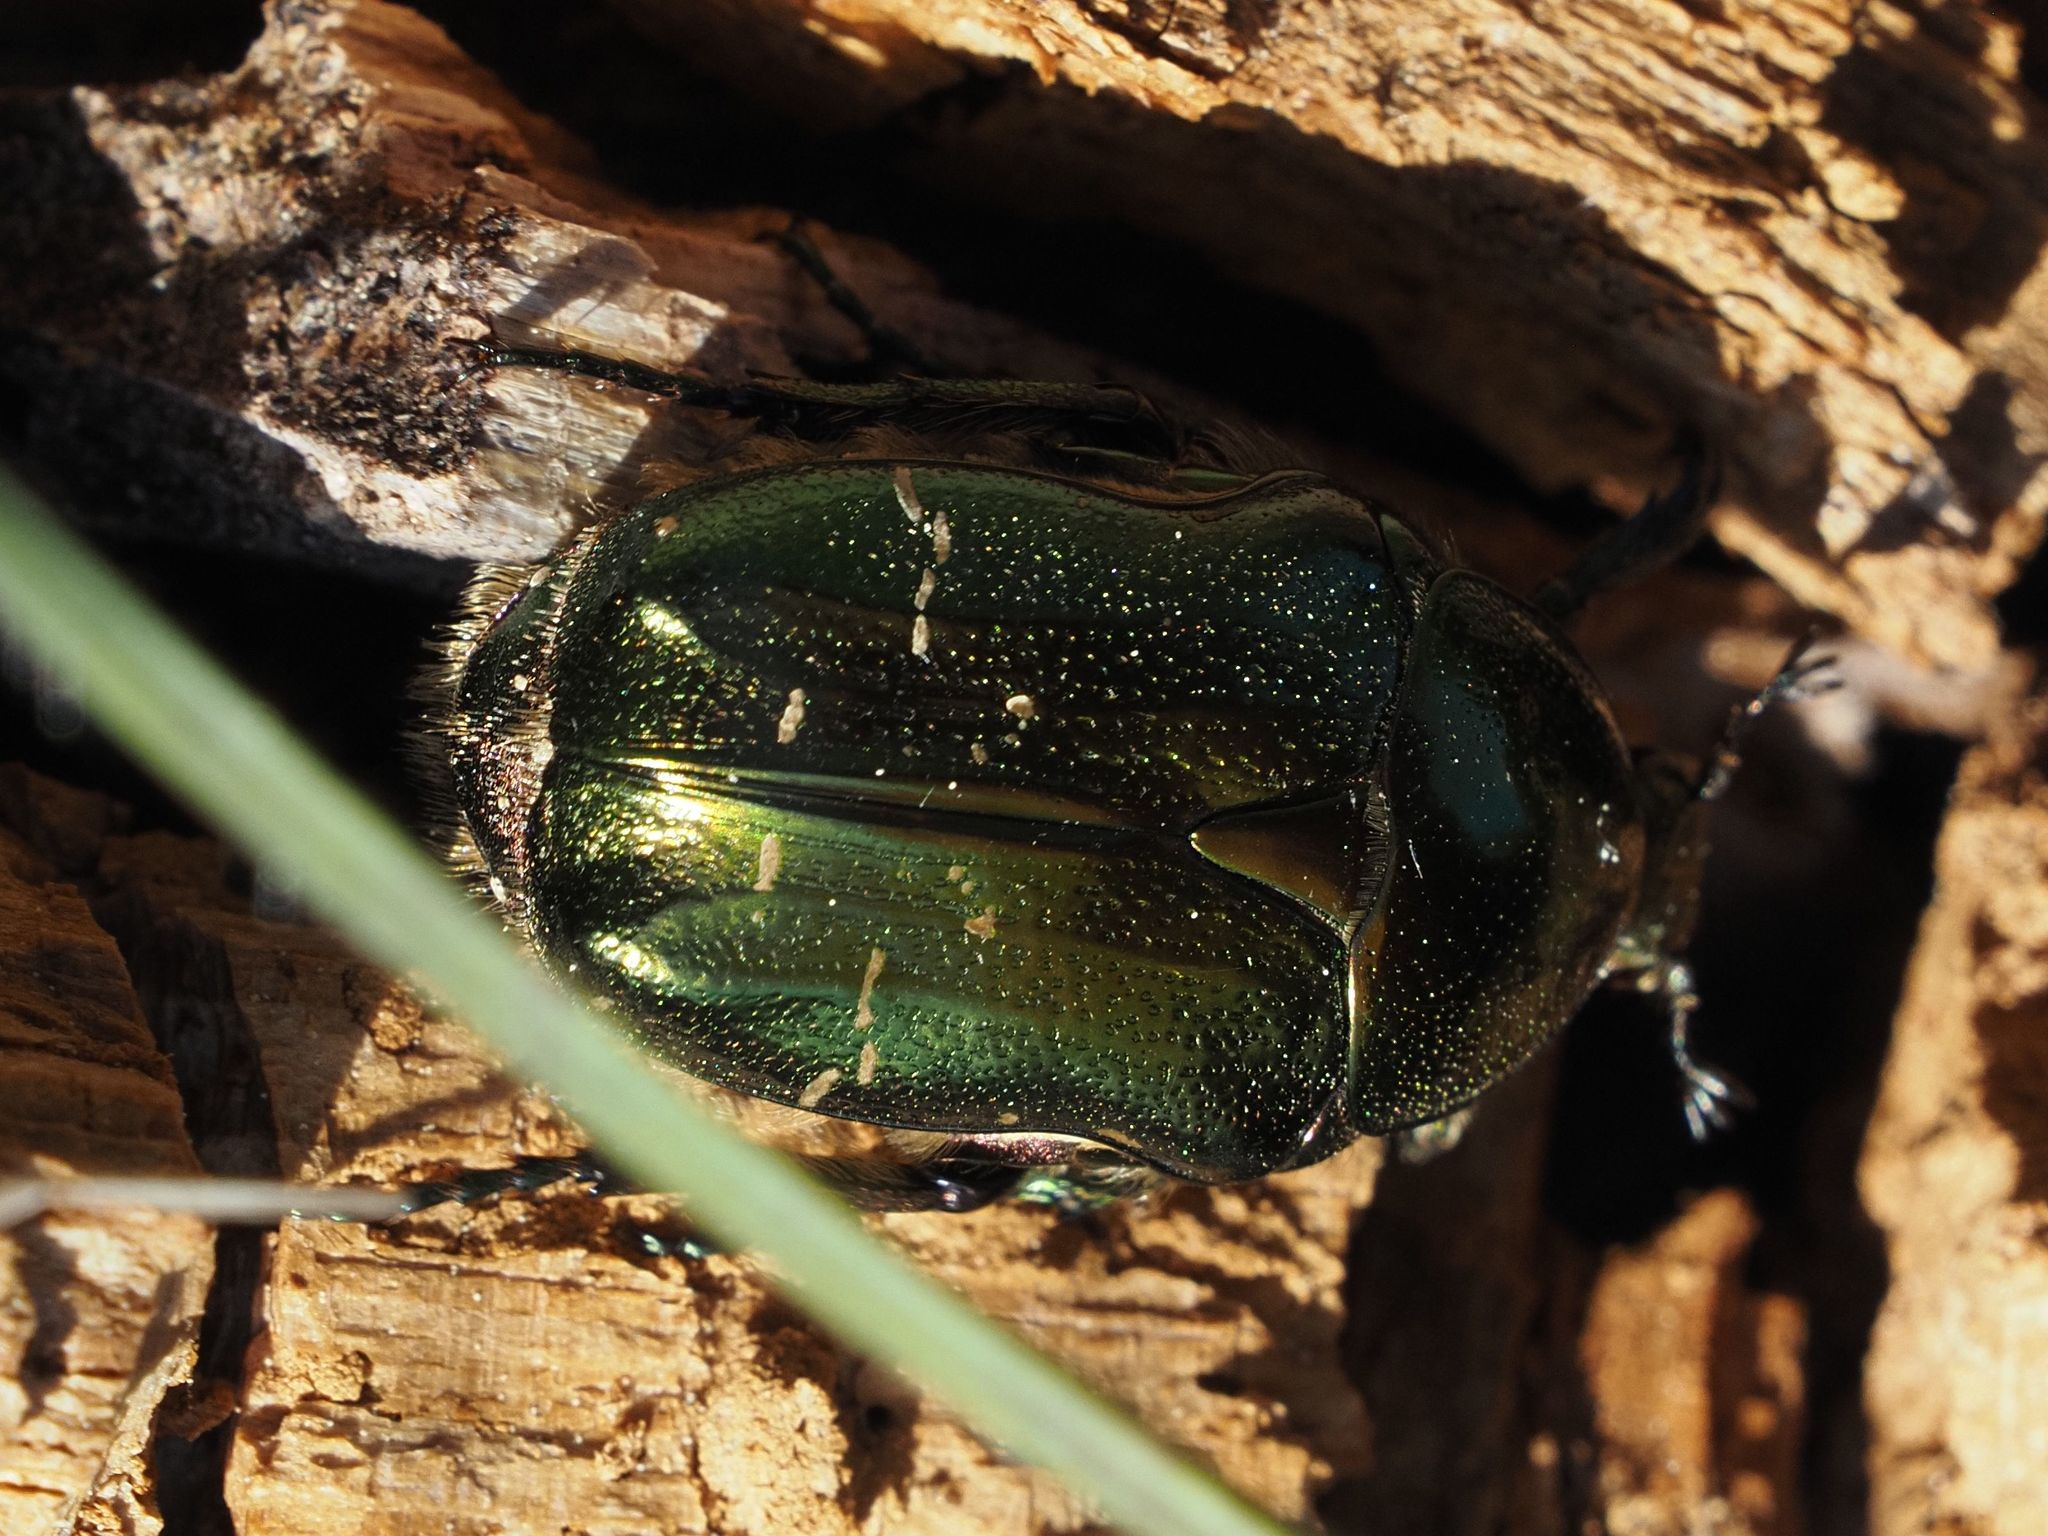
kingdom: Animalia
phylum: Arthropoda
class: Insecta
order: Coleoptera
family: Scarabaeidae
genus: Cetonia
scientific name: Cetonia aurata
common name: Rose chafer
